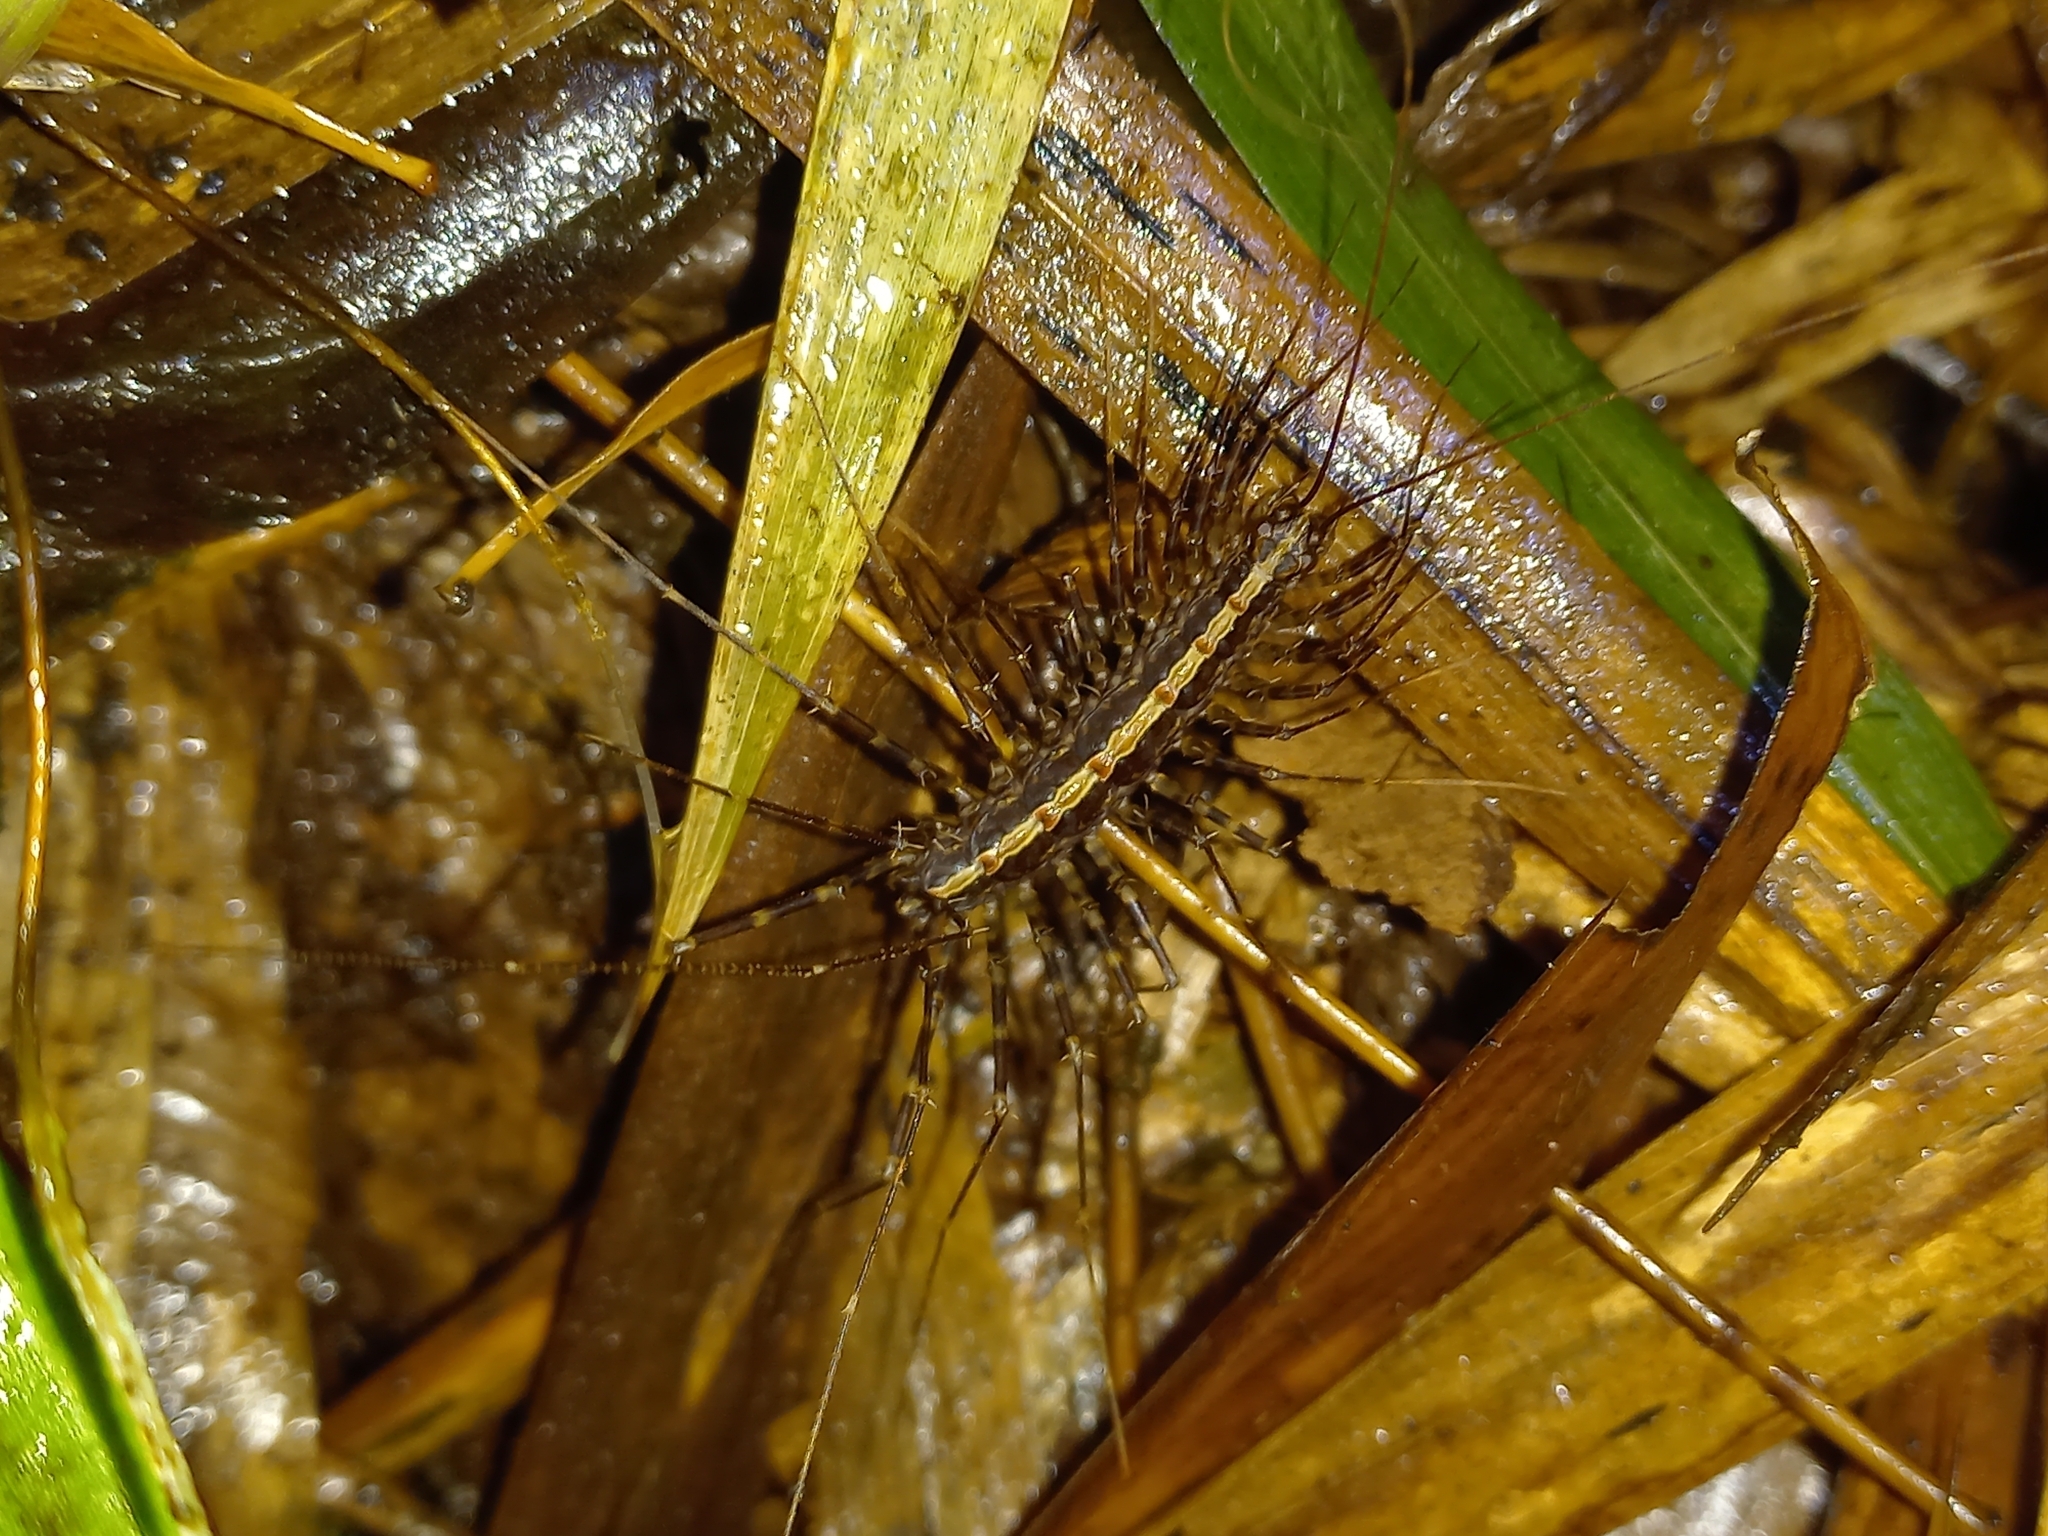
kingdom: Animalia
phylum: Arthropoda
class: Chilopoda
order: Scutigeromorpha
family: Pselliodidae
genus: Sphendononema
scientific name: Sphendononema guildingii
